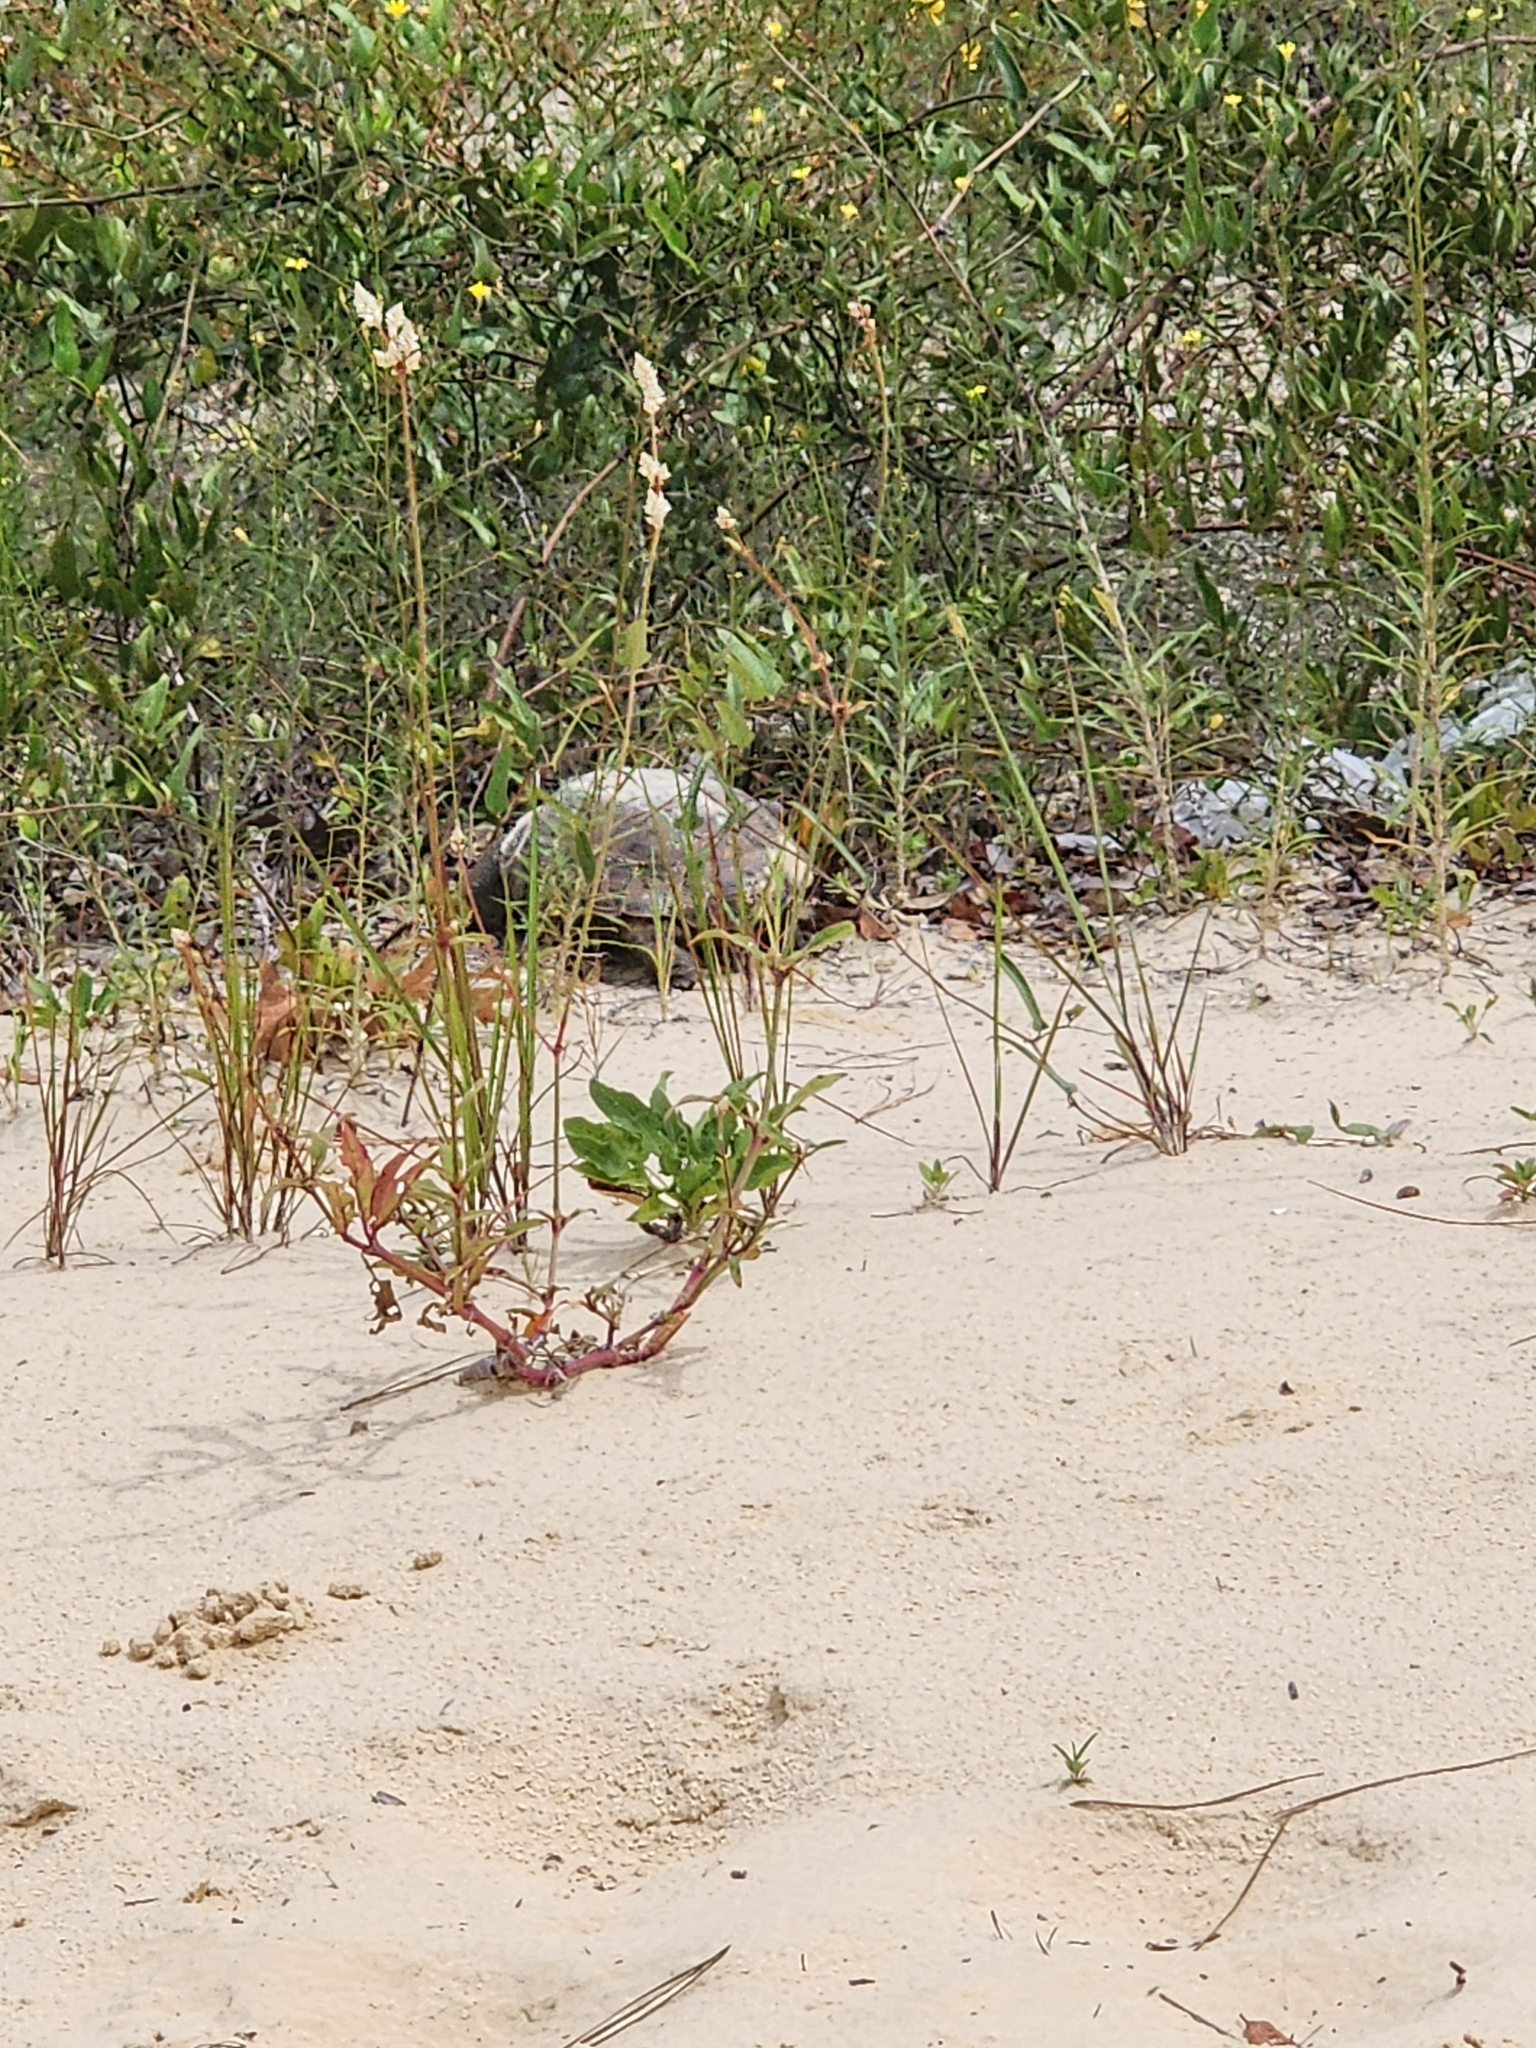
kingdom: Animalia
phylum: Chordata
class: Testudines
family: Testudinidae
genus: Gopherus
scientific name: Gopherus polyphemus
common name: Florida gopher tortoise
